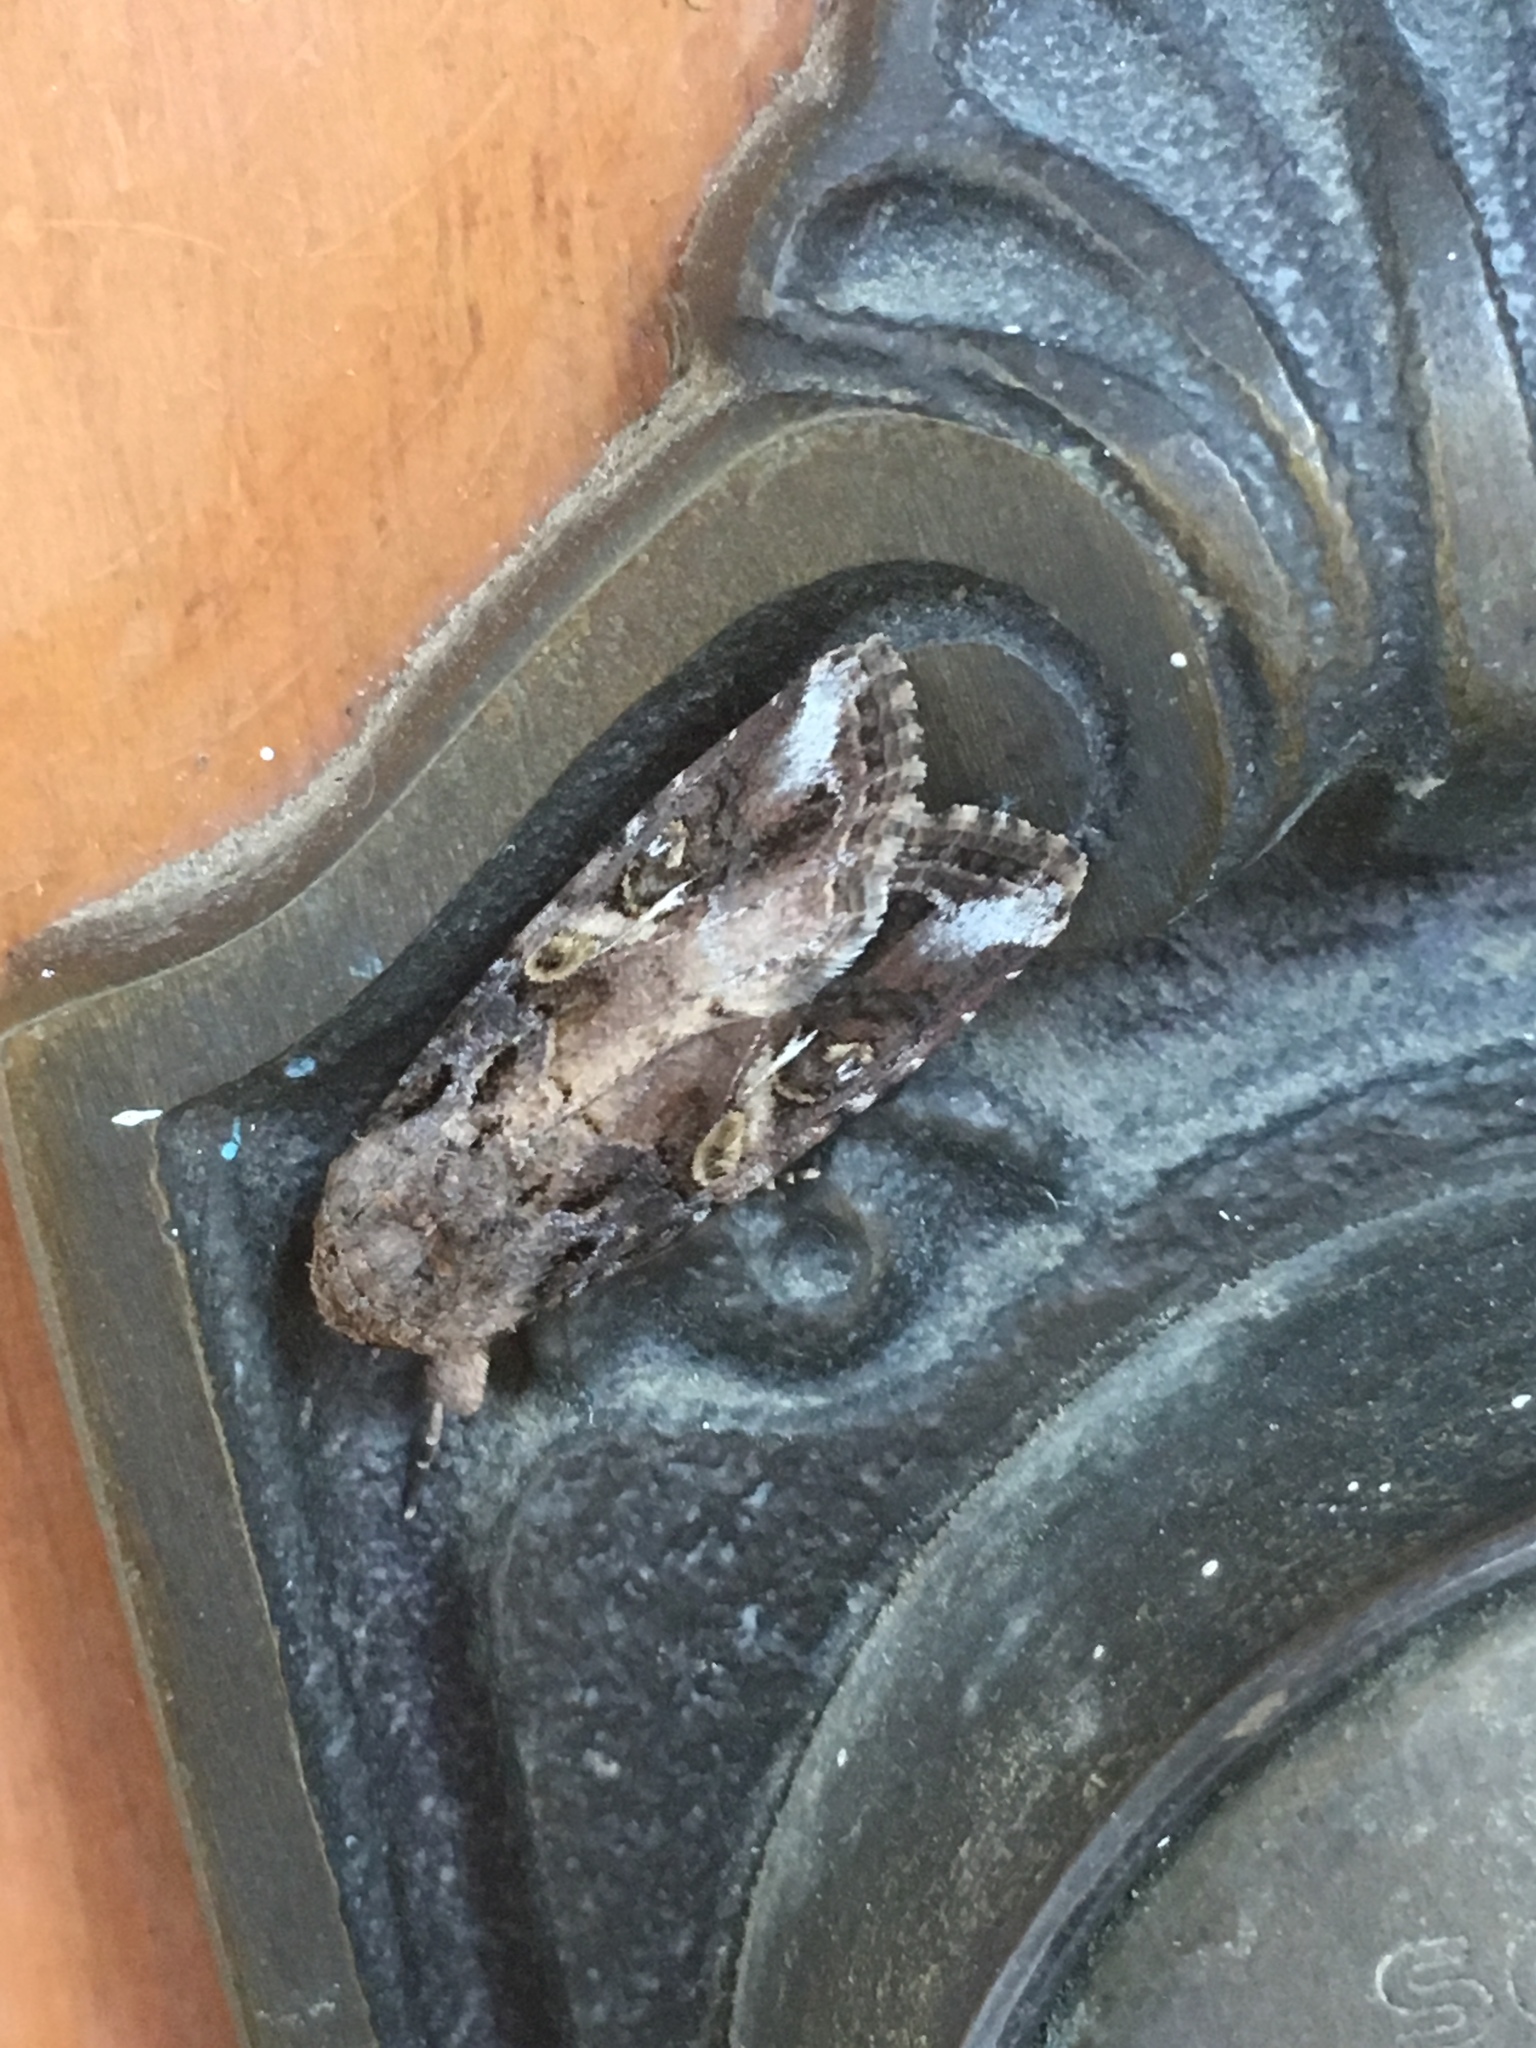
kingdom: Animalia
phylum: Arthropoda
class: Insecta
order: Lepidoptera
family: Noctuidae
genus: Spodoptera
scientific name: Spodoptera latifascia
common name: Velvet armyworm moth
